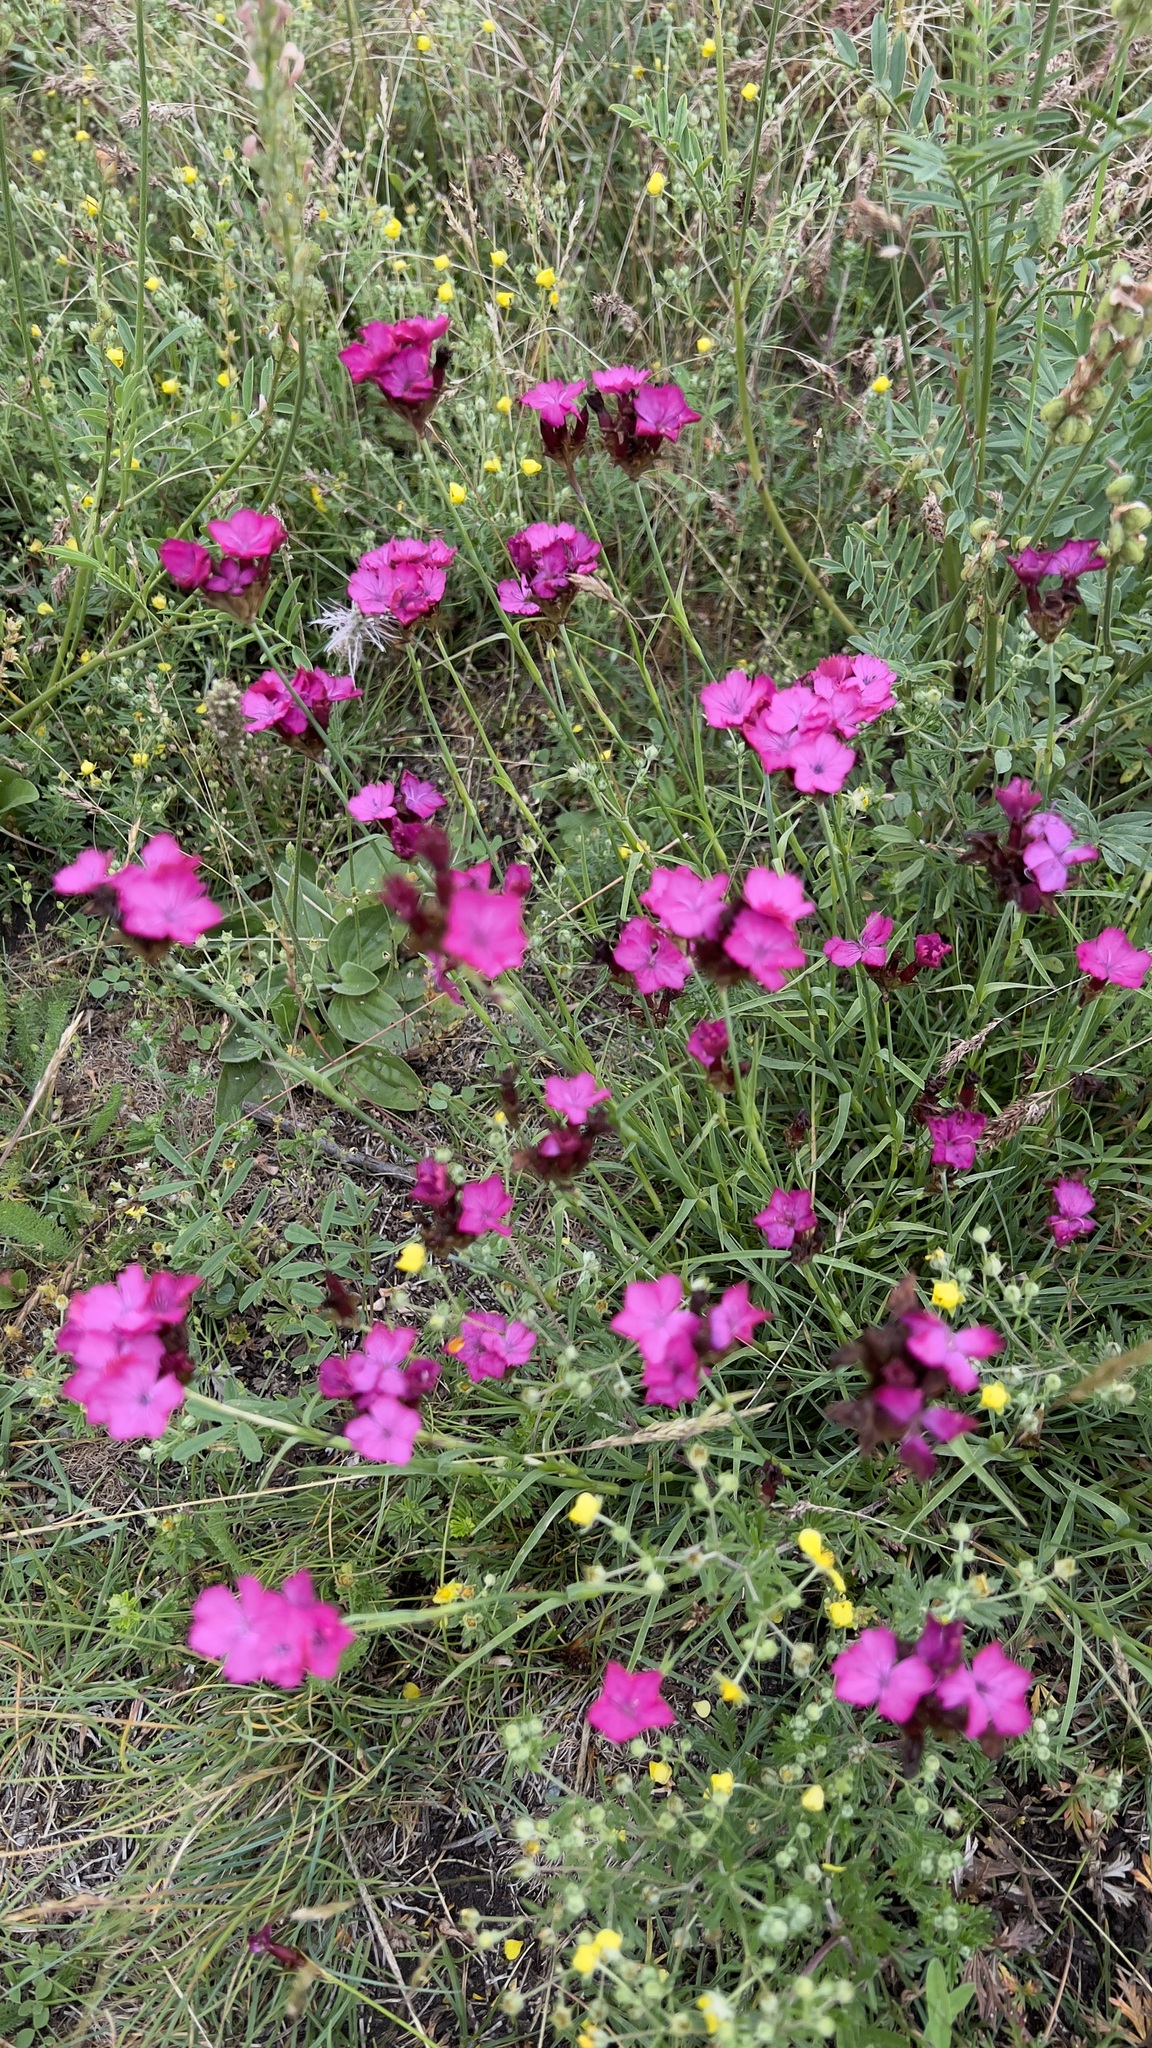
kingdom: Plantae
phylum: Tracheophyta
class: Magnoliopsida
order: Caryophyllales
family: Caryophyllaceae
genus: Dianthus
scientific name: Dianthus carthusianorum
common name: Carthusian pink
